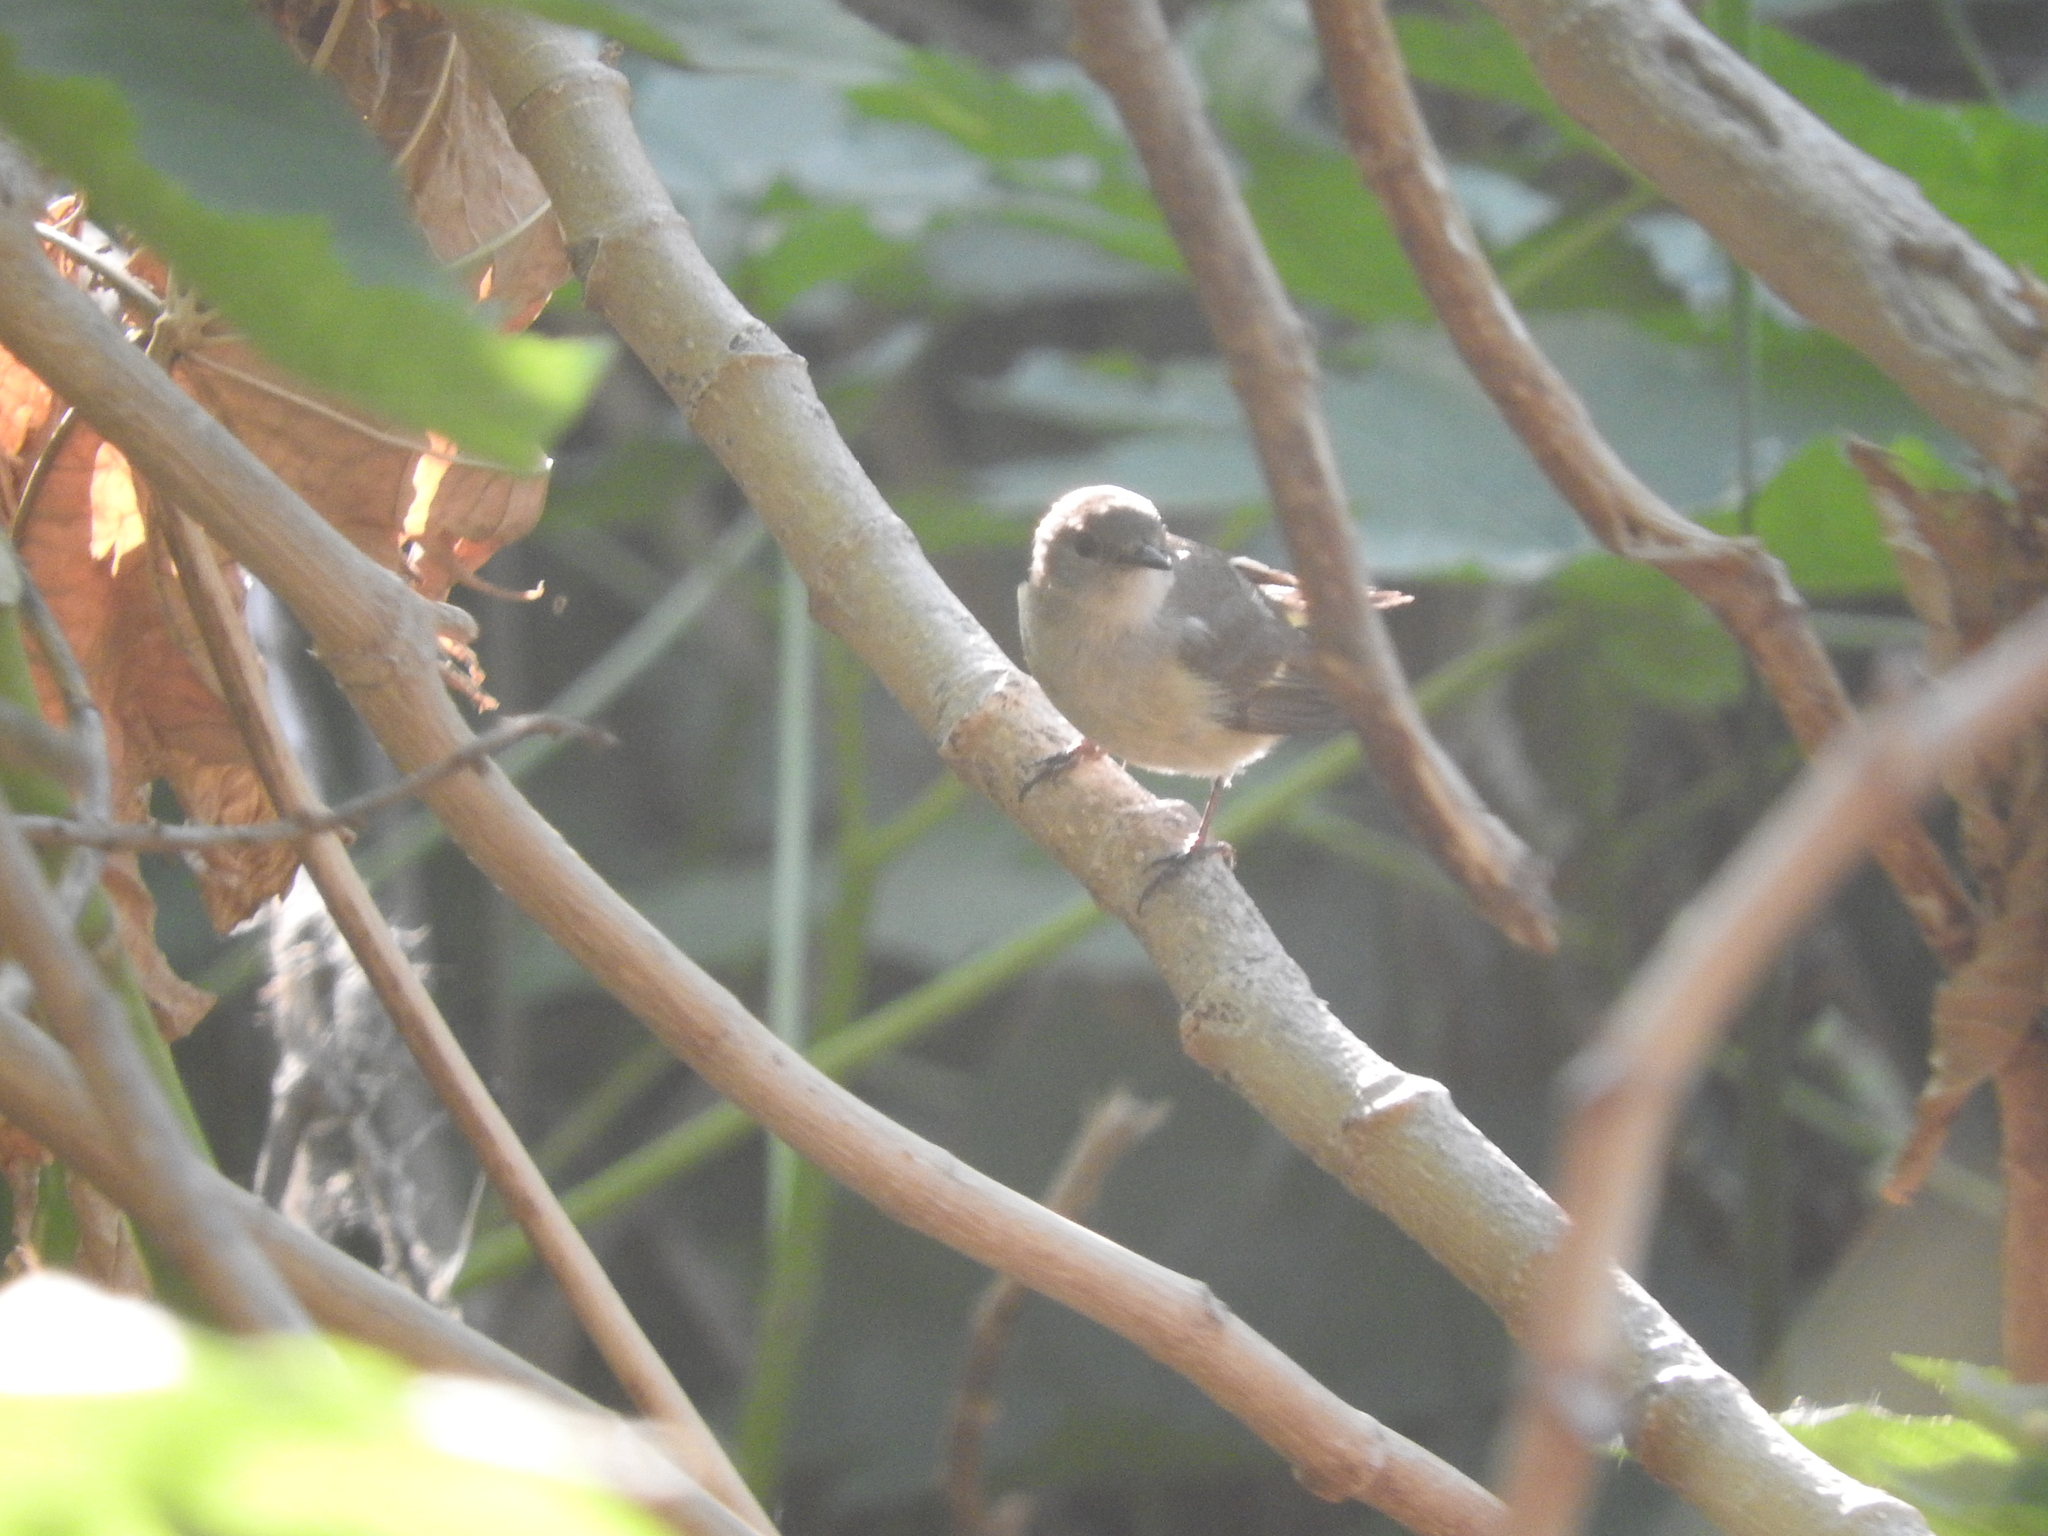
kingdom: Animalia
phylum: Chordata
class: Aves
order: Passeriformes
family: Parulidae
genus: Setophaga
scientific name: Setophaga ruticilla
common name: American redstart
